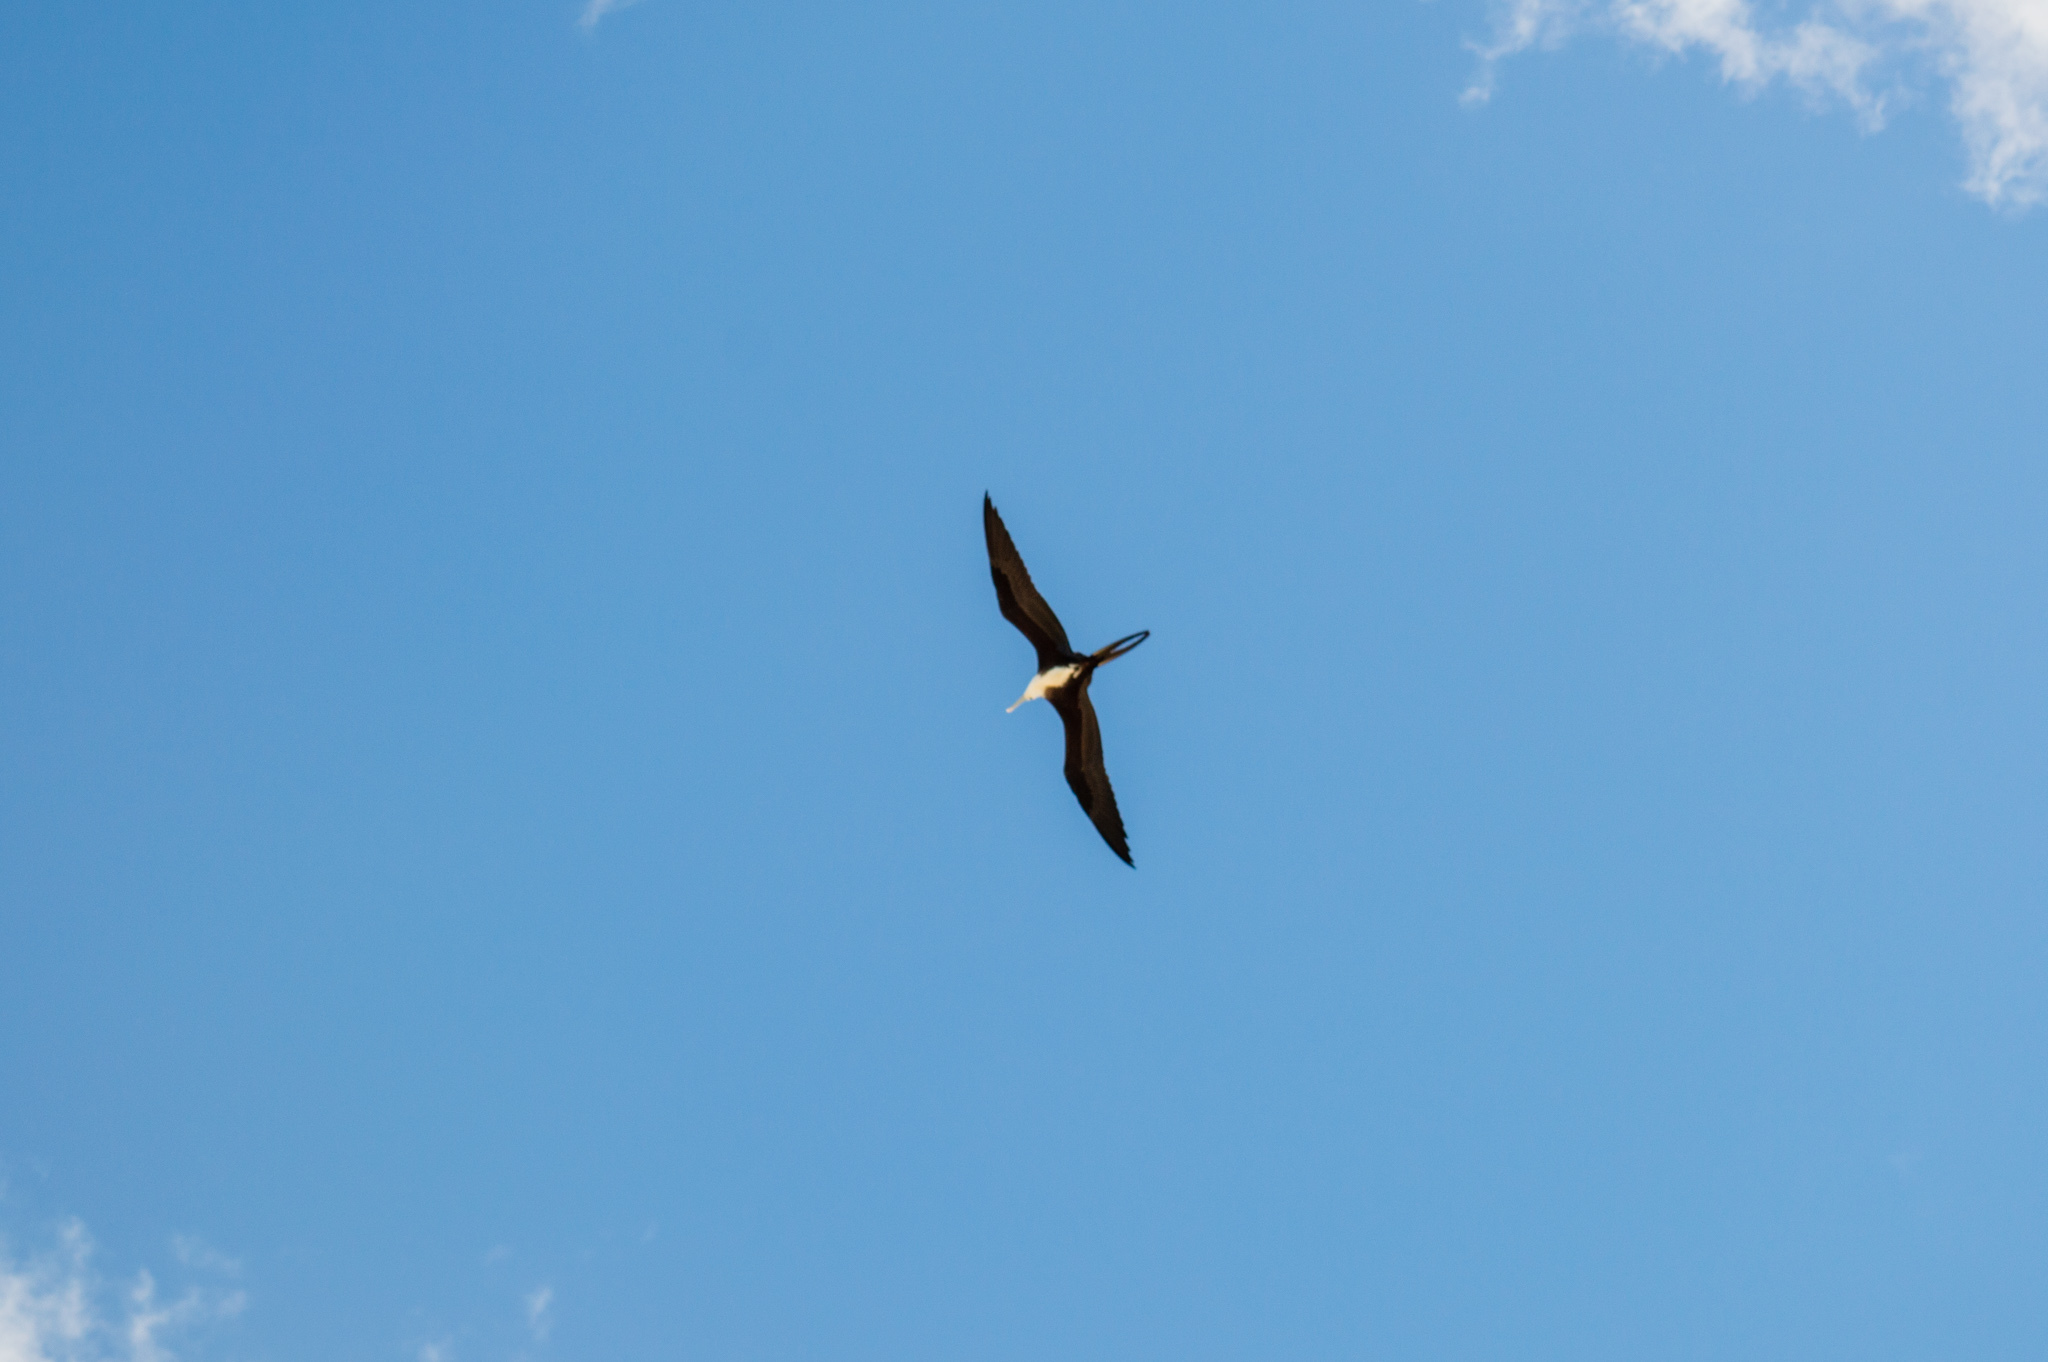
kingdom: Animalia
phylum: Chordata
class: Aves
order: Suliformes
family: Fregatidae
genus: Fregata
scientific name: Fregata magnificens
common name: Magnificent frigatebird
